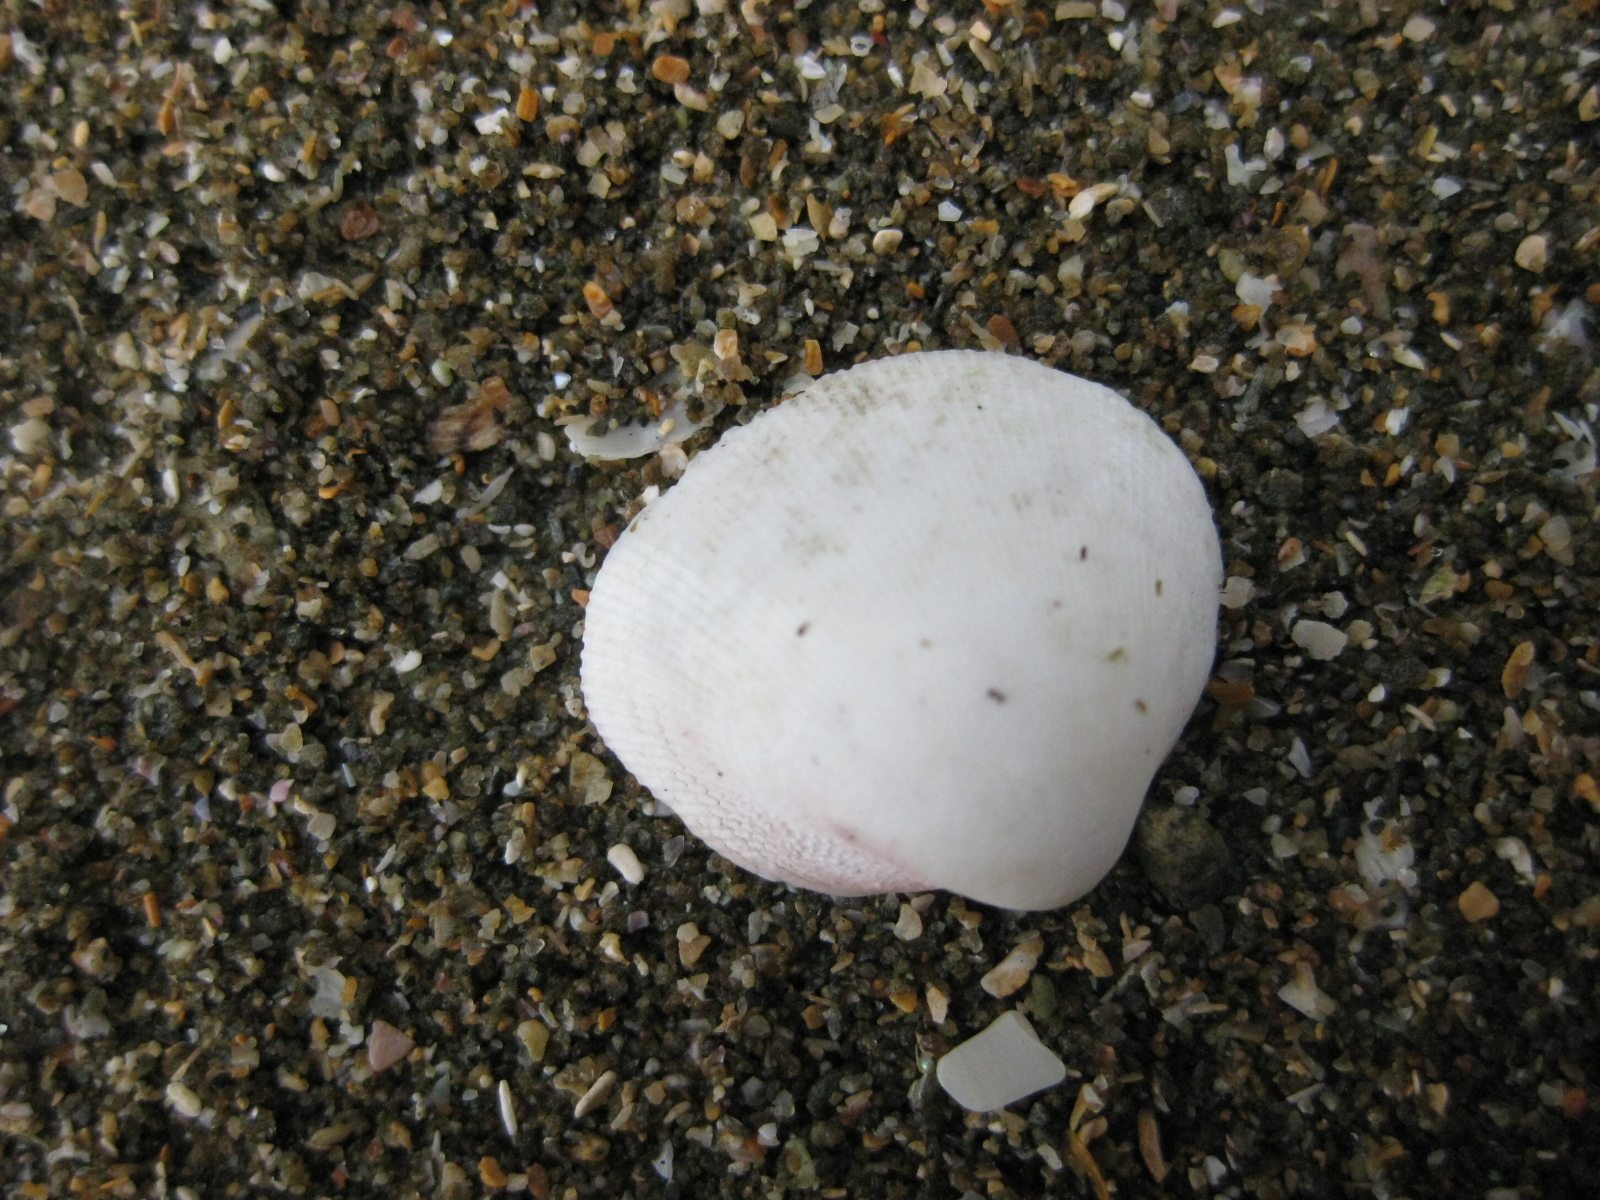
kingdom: Animalia
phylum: Mollusca
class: Bivalvia
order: Cardiida
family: Cardiidae
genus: Pratulum
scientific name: Pratulum pulchellum
